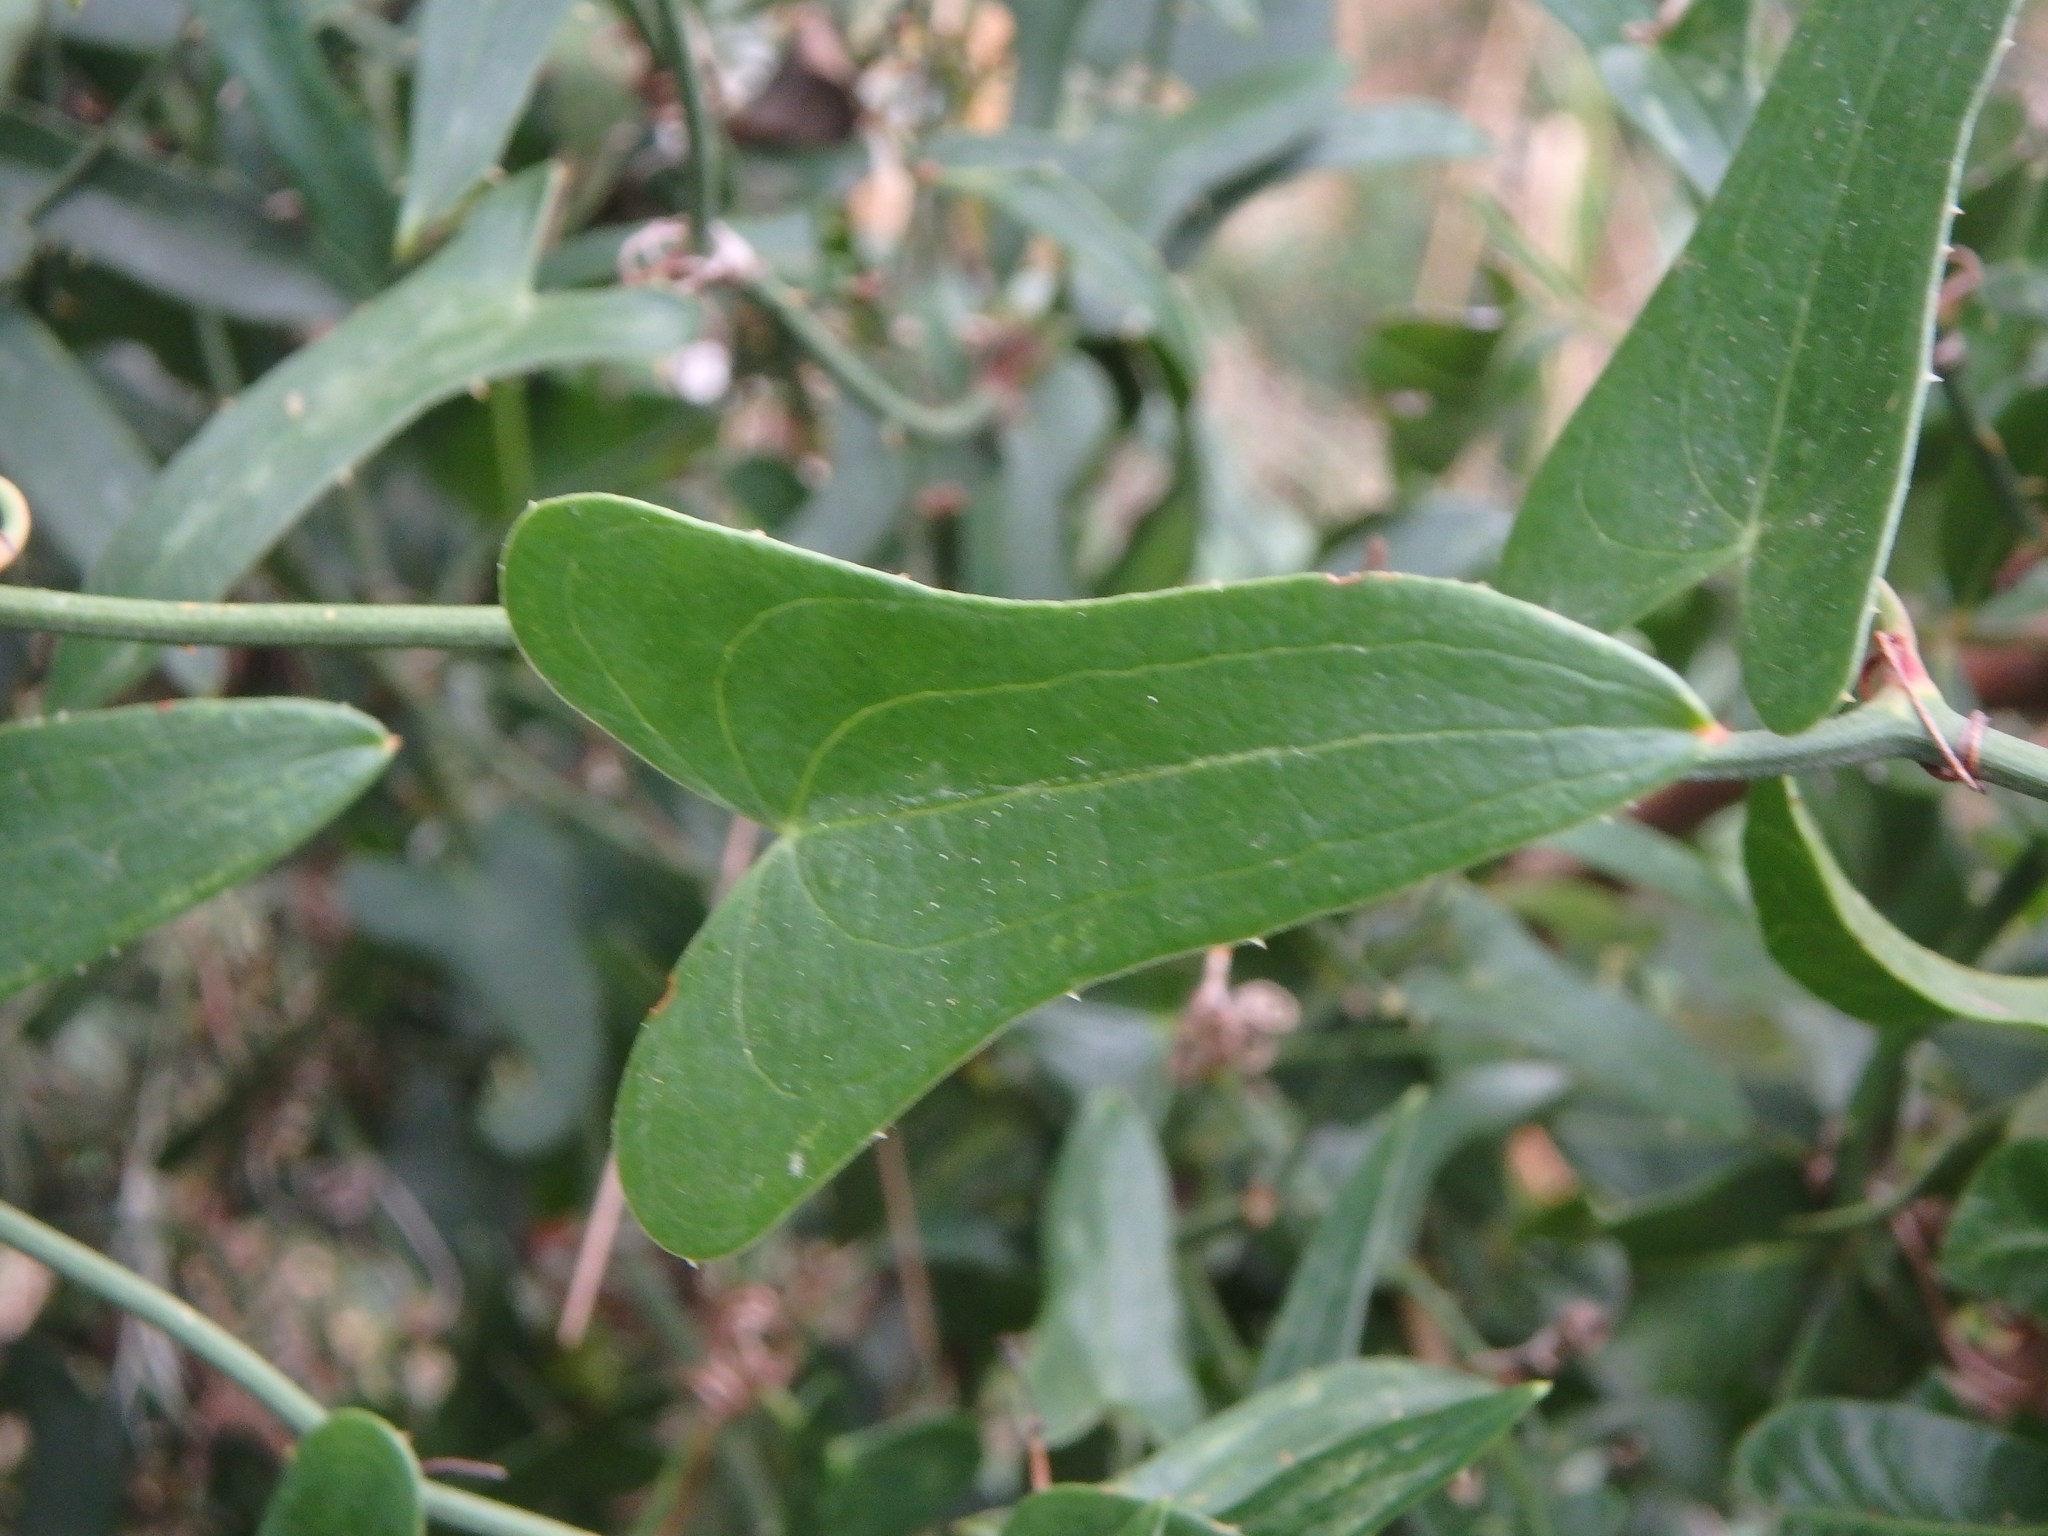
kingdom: Plantae
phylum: Tracheophyta
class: Liliopsida
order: Liliales
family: Smilacaceae
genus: Smilax
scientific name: Smilax aspera
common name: Common smilax
